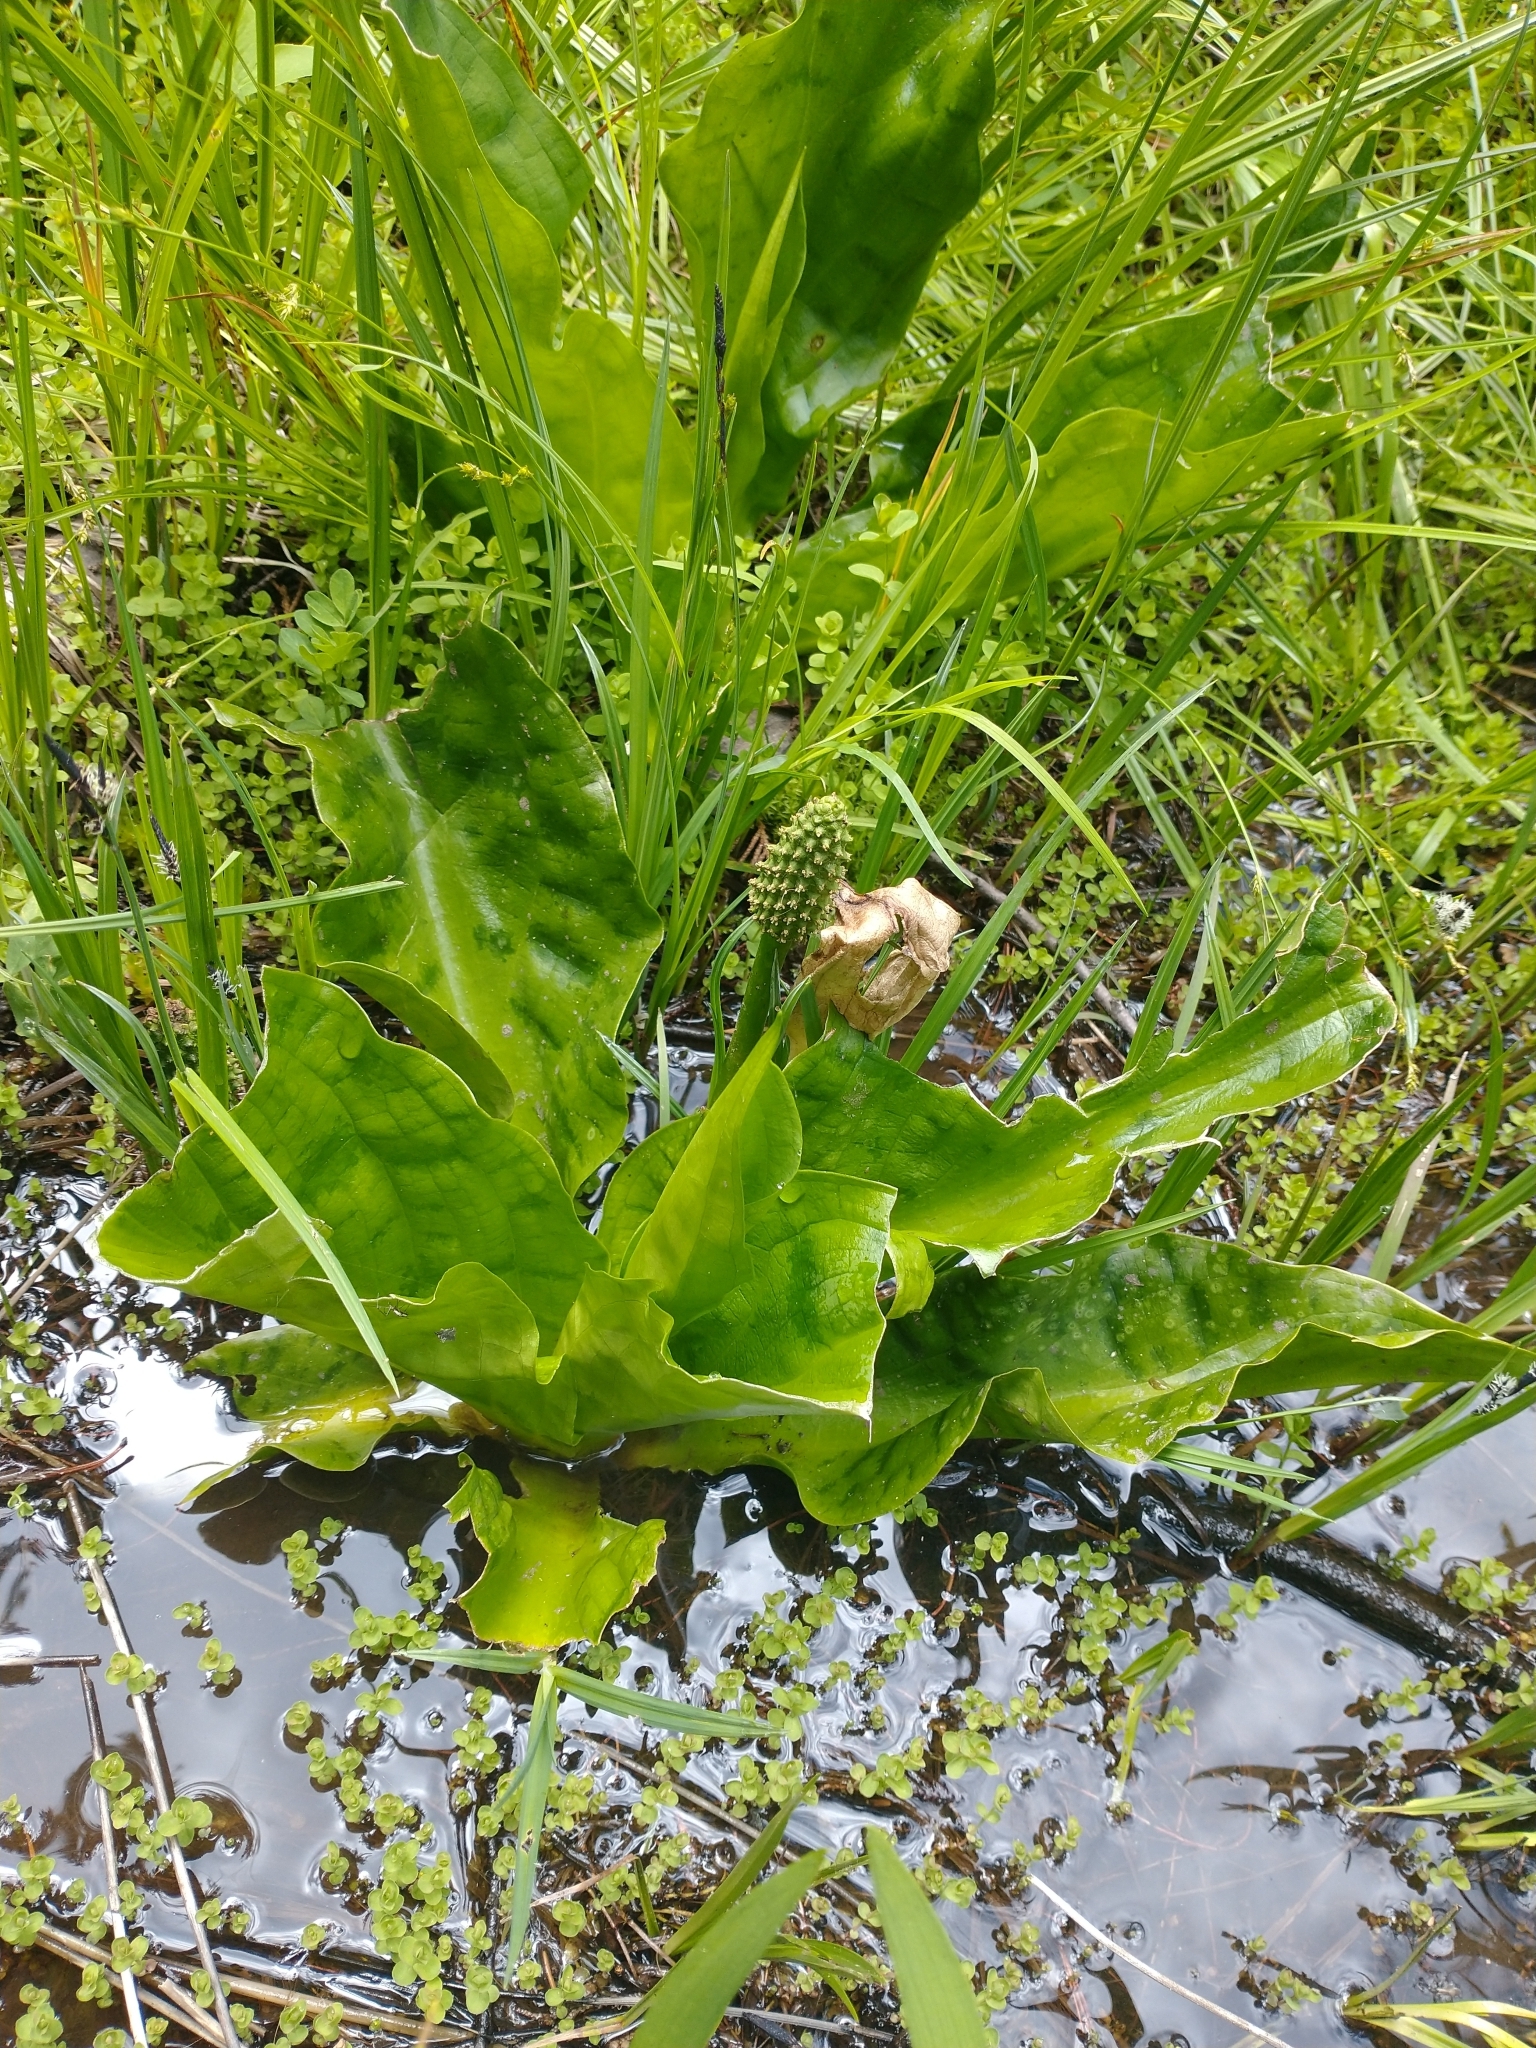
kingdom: Plantae
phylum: Tracheophyta
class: Liliopsida
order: Alismatales
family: Araceae
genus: Lysichiton
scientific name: Lysichiton americanus
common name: American skunk cabbage
